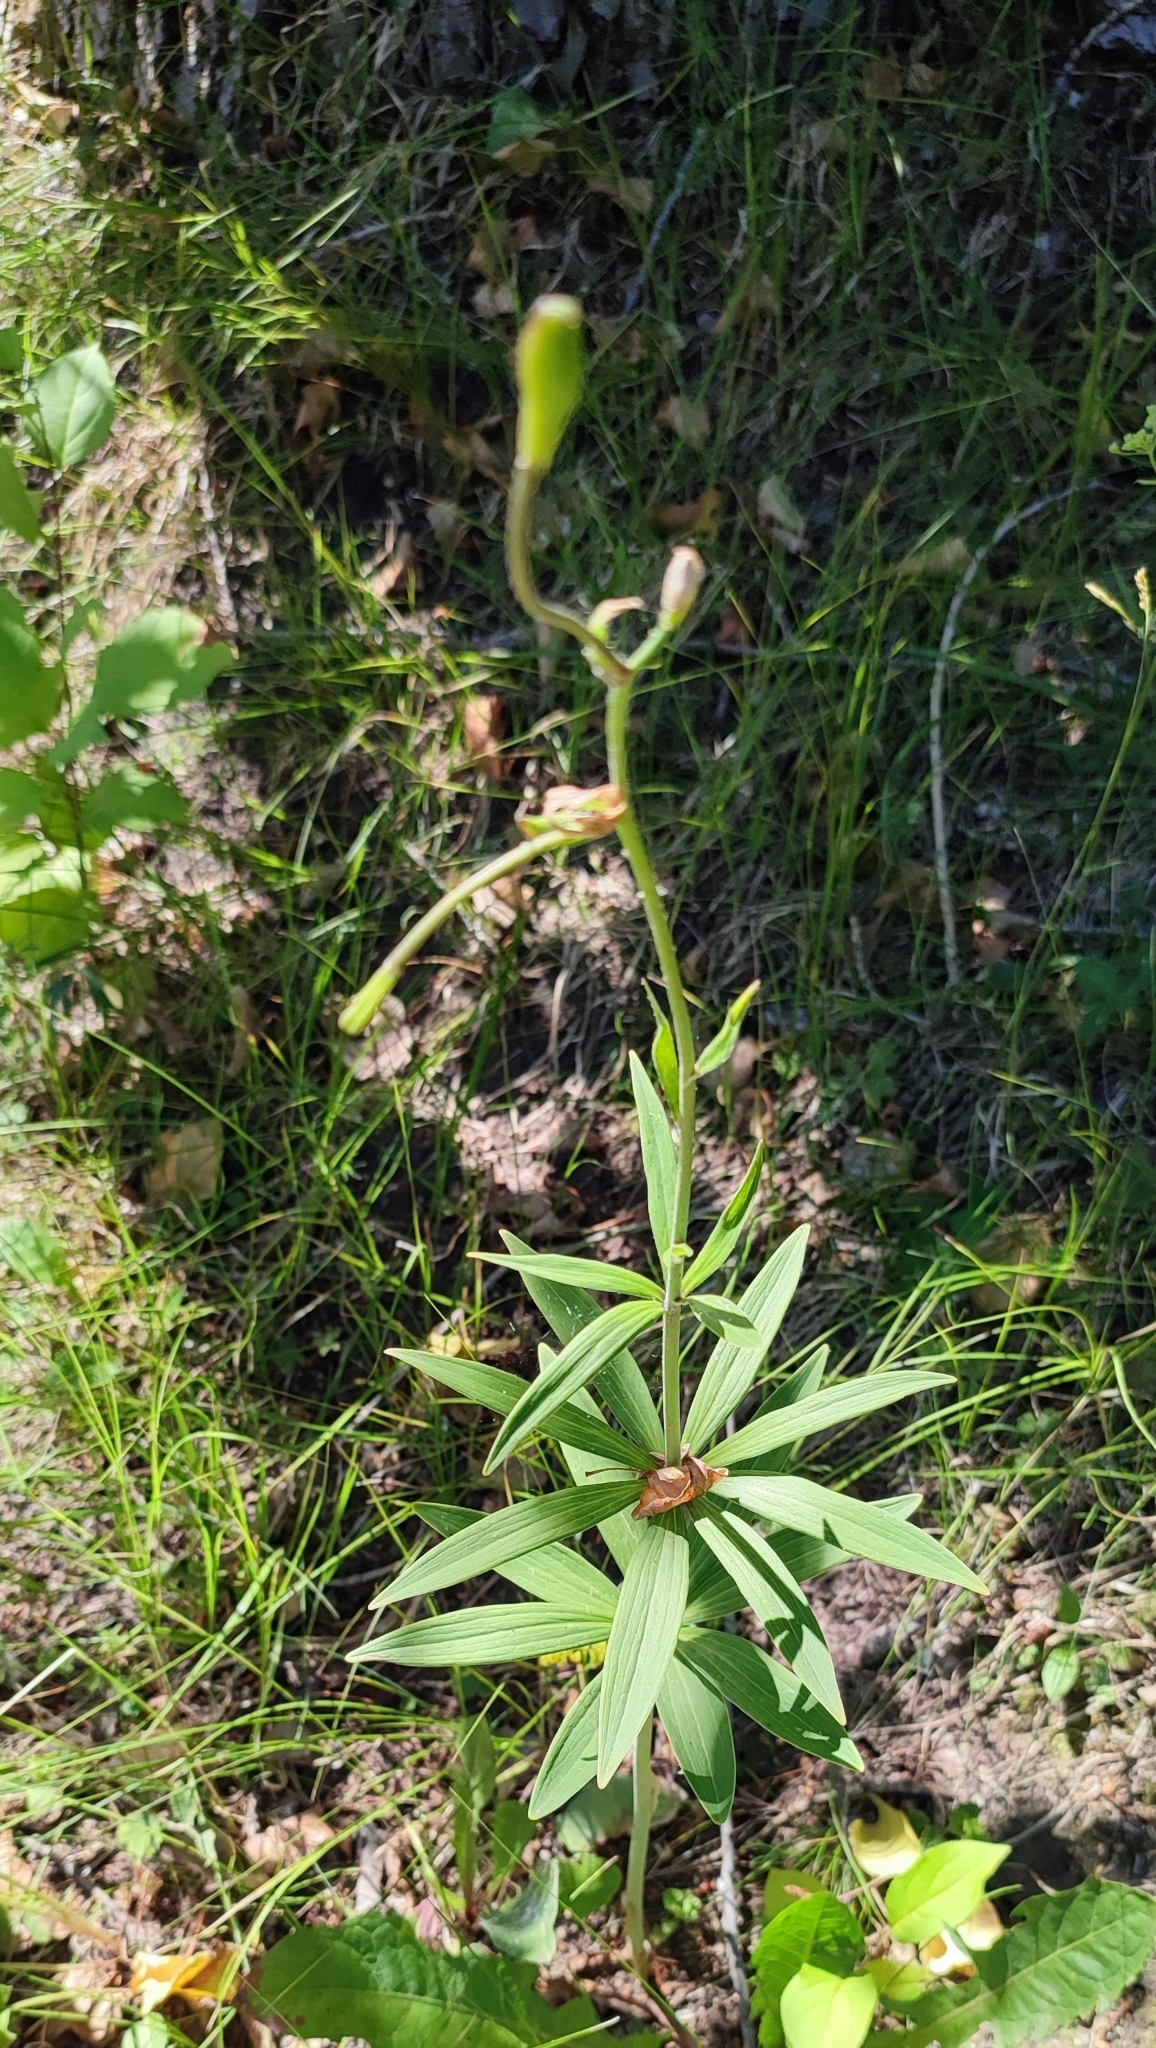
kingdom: Plantae
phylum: Tracheophyta
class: Liliopsida
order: Liliales
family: Liliaceae
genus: Lilium
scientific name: Lilium martagon
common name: Martagon lily
